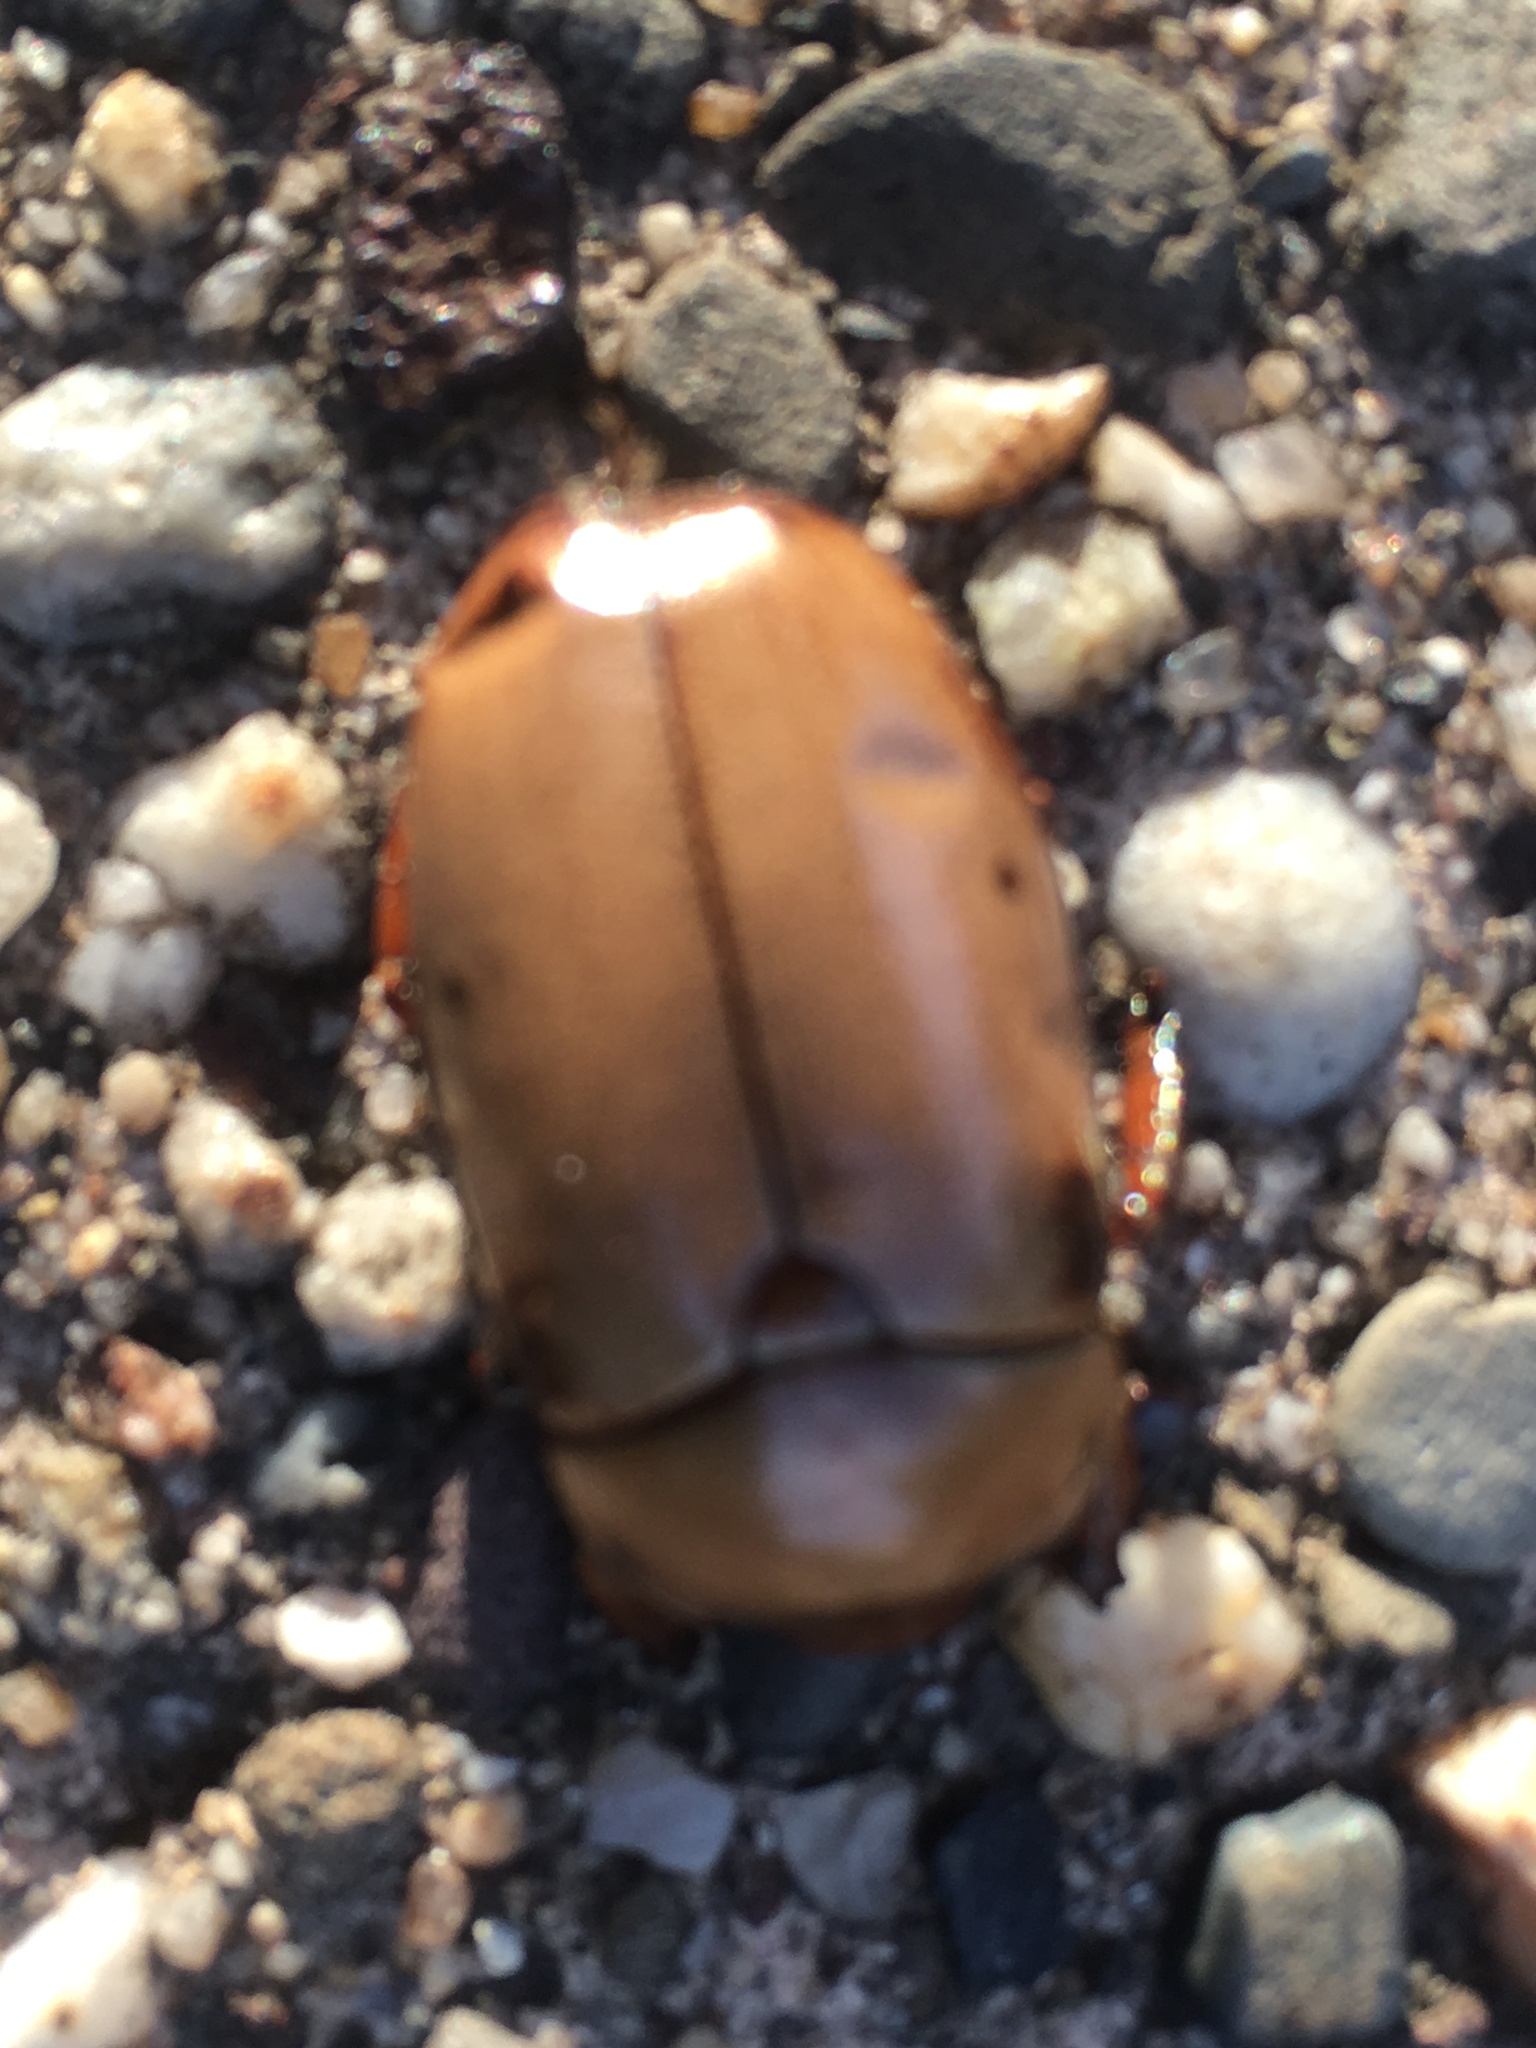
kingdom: Animalia
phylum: Arthropoda
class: Insecta
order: Coleoptera
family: Scarabaeidae
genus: Pelidnota
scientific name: Pelidnota punctata
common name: Grapevine beetle
